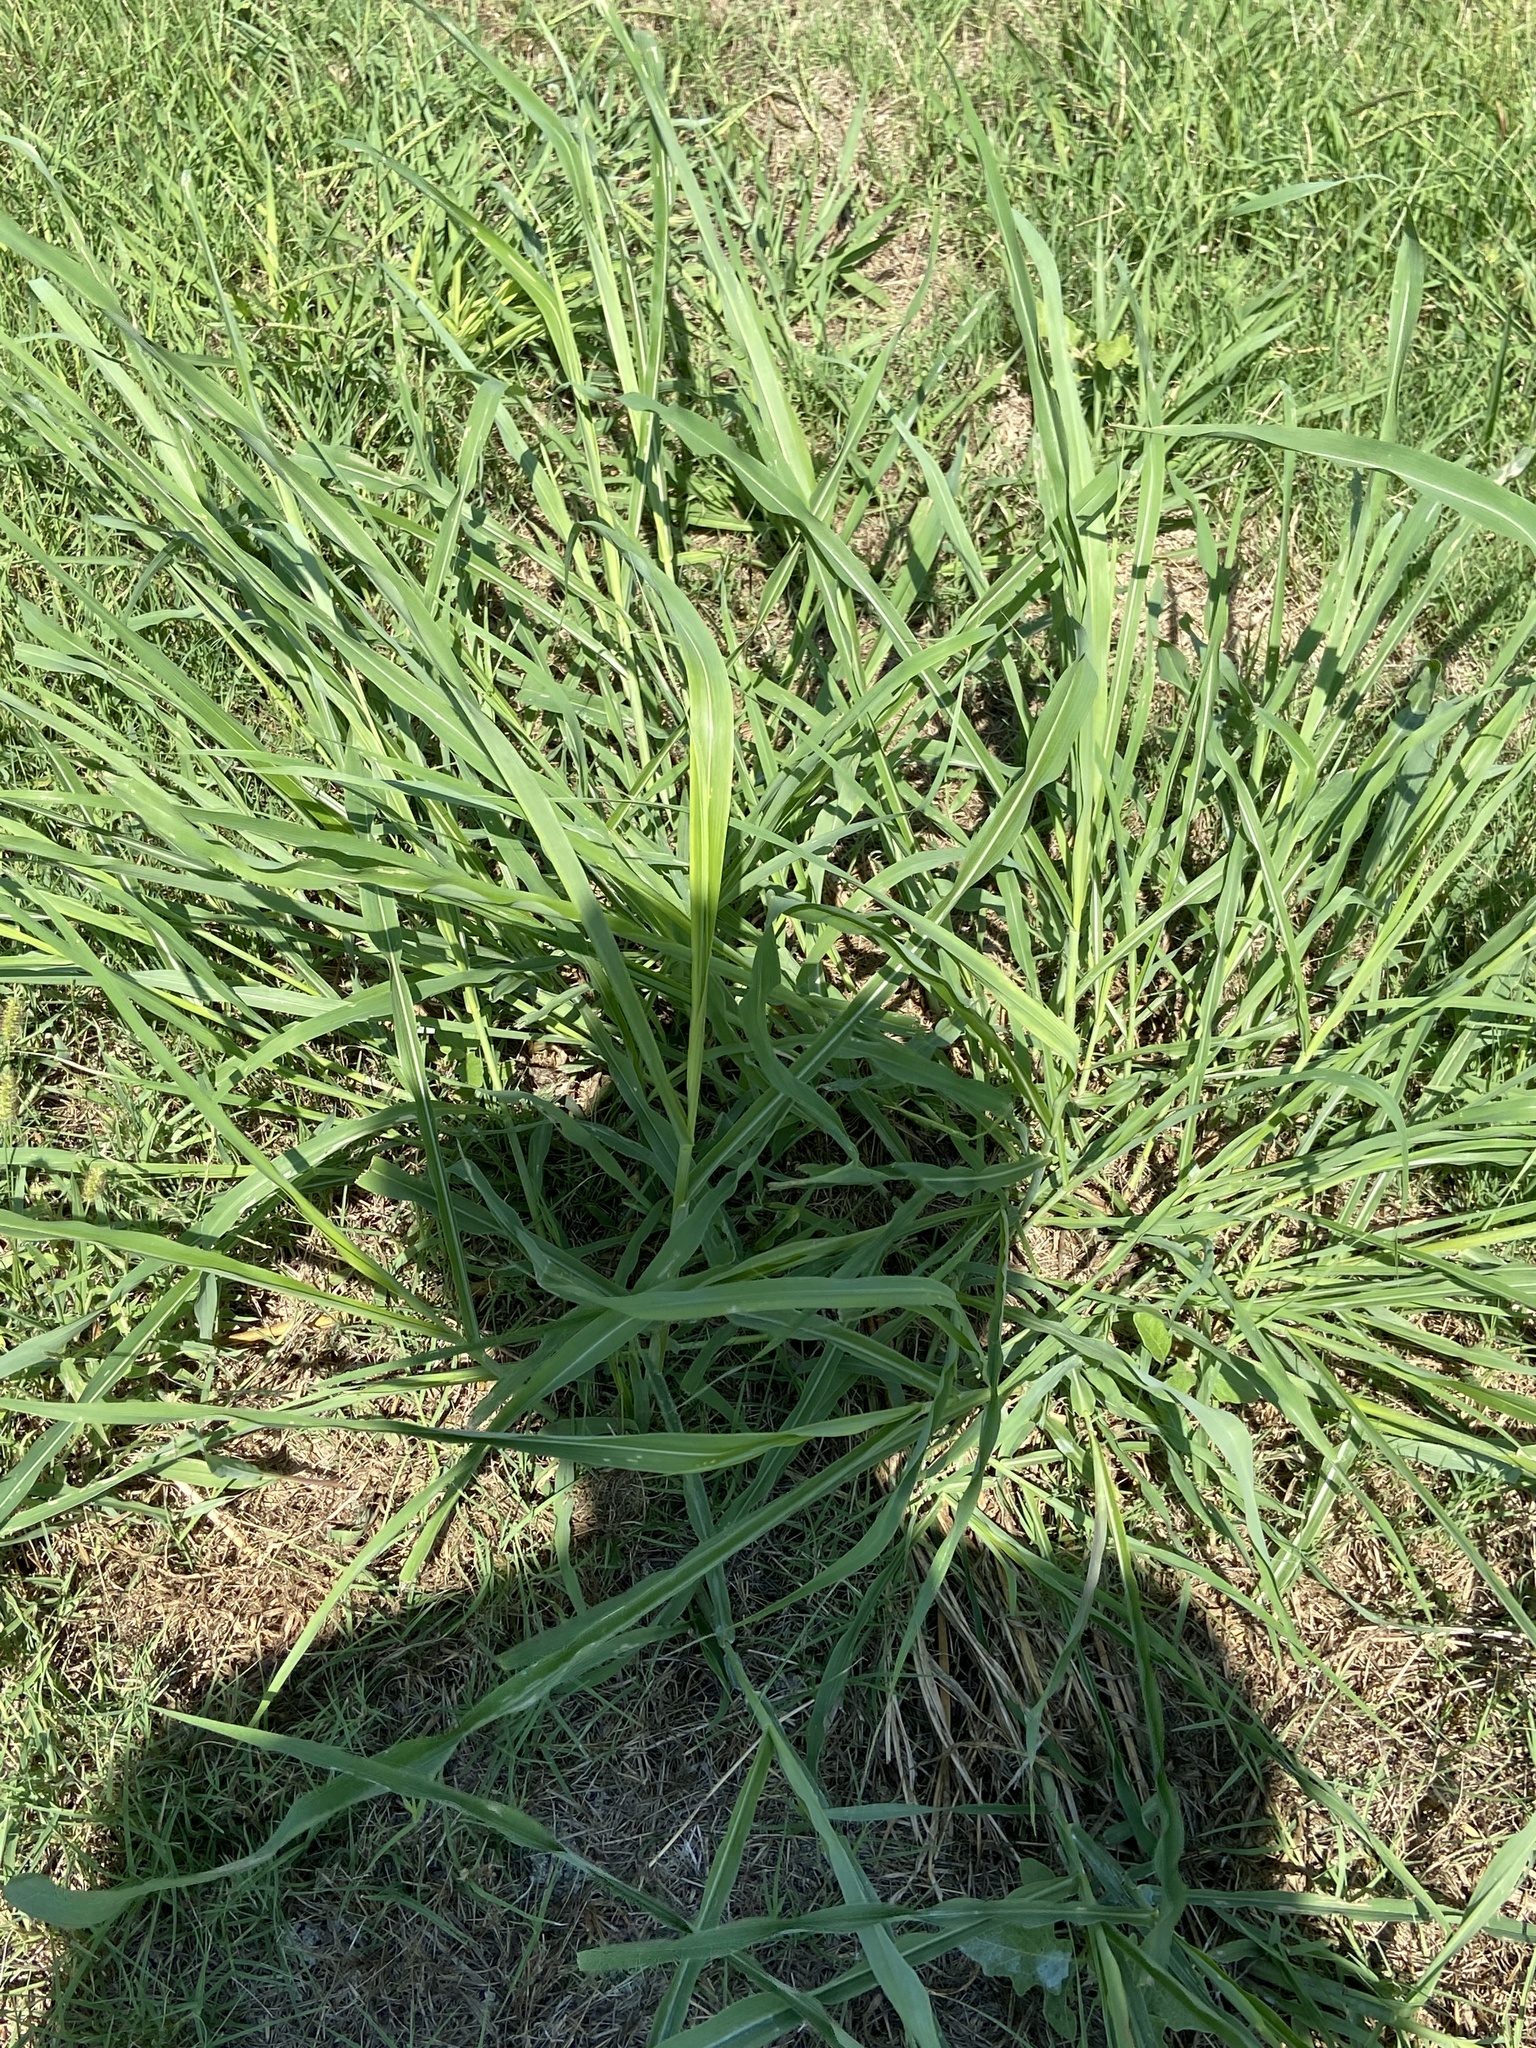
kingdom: Plantae
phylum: Tracheophyta
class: Liliopsida
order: Poales
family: Poaceae
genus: Sorghum
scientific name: Sorghum halepense
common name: Johnson-grass
